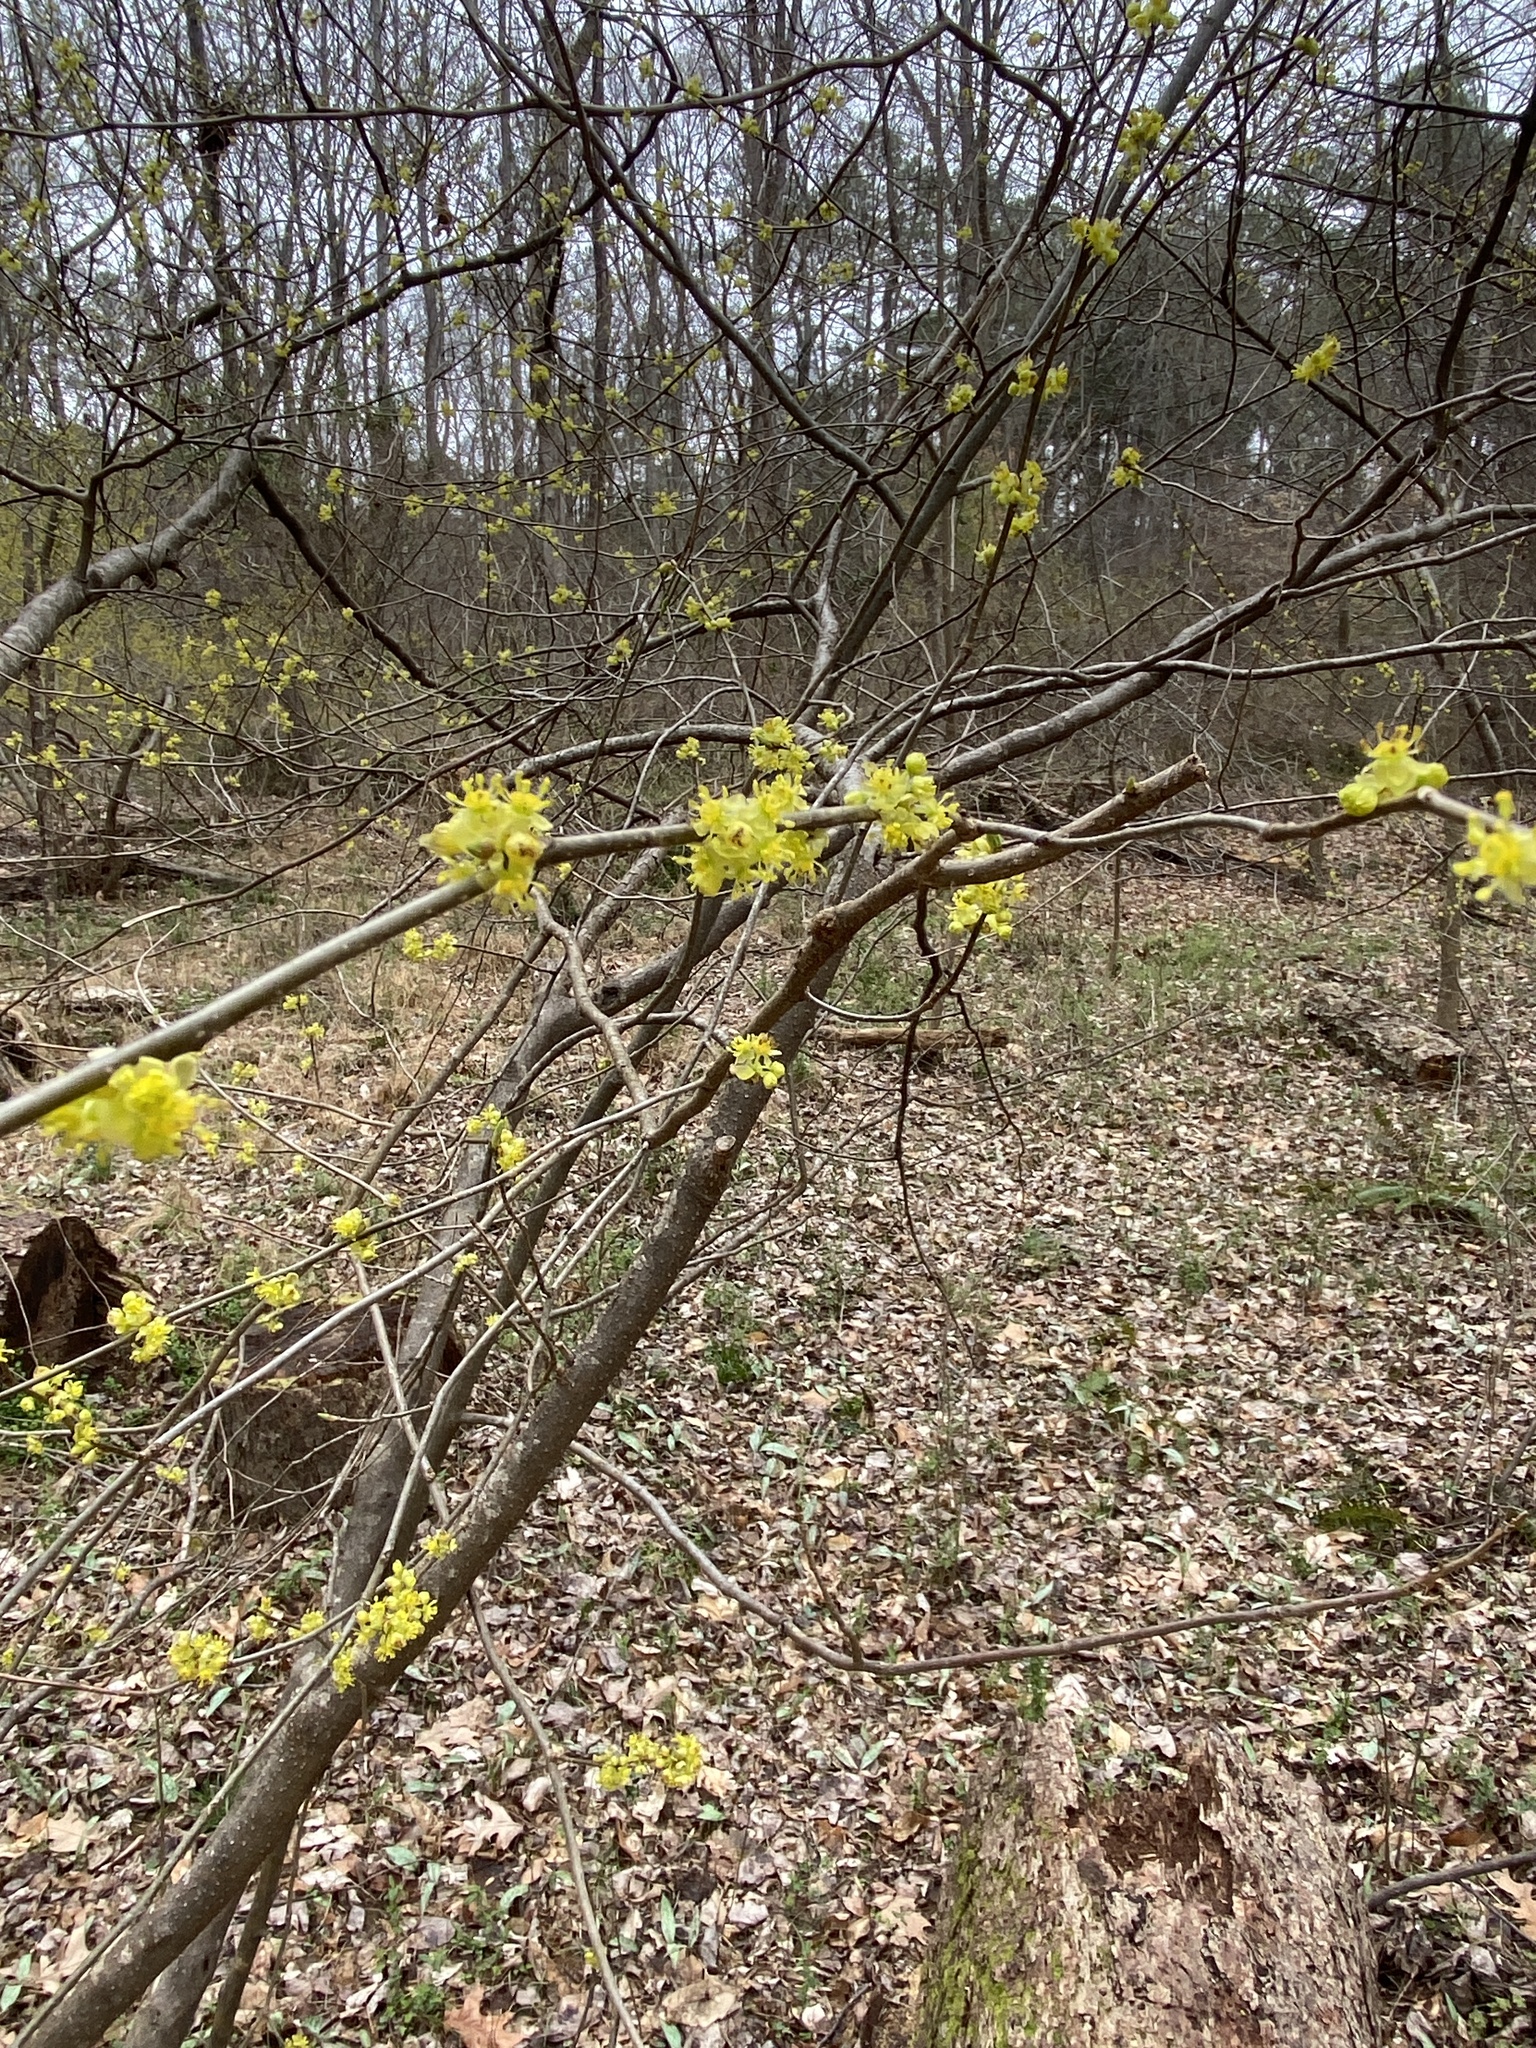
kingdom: Plantae
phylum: Tracheophyta
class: Magnoliopsida
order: Laurales
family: Lauraceae
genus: Lindera
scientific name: Lindera benzoin
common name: Spicebush
